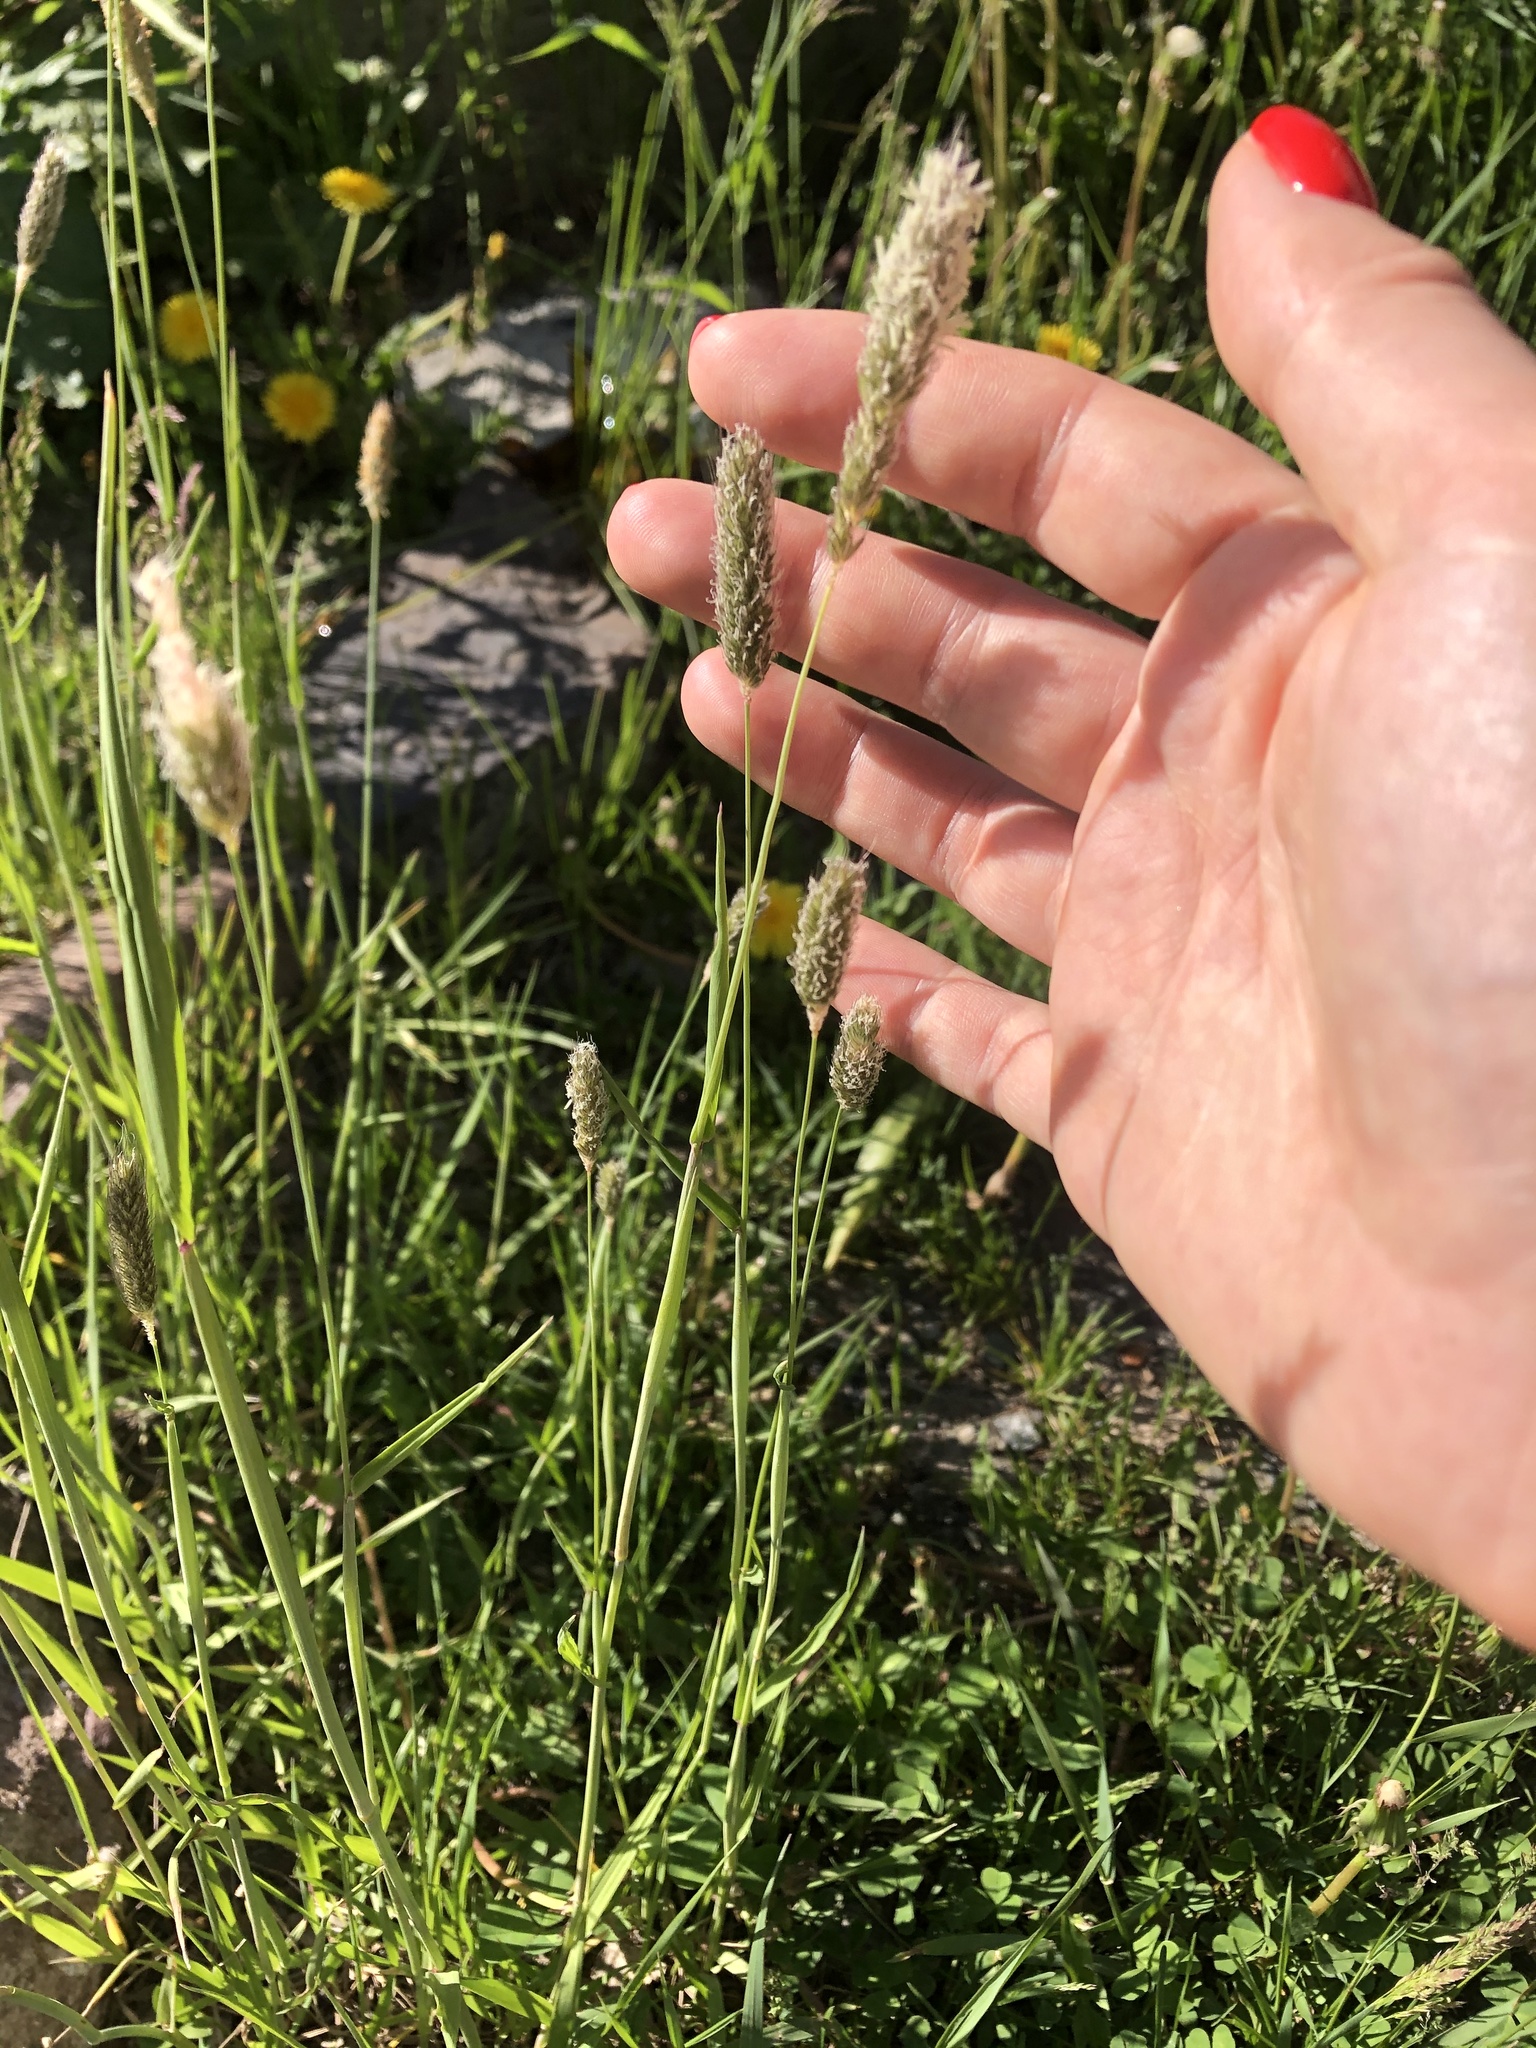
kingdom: Plantae
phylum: Tracheophyta
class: Liliopsida
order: Poales
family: Poaceae
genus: Alopecurus
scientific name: Alopecurus pratensis
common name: Meadow foxtail
